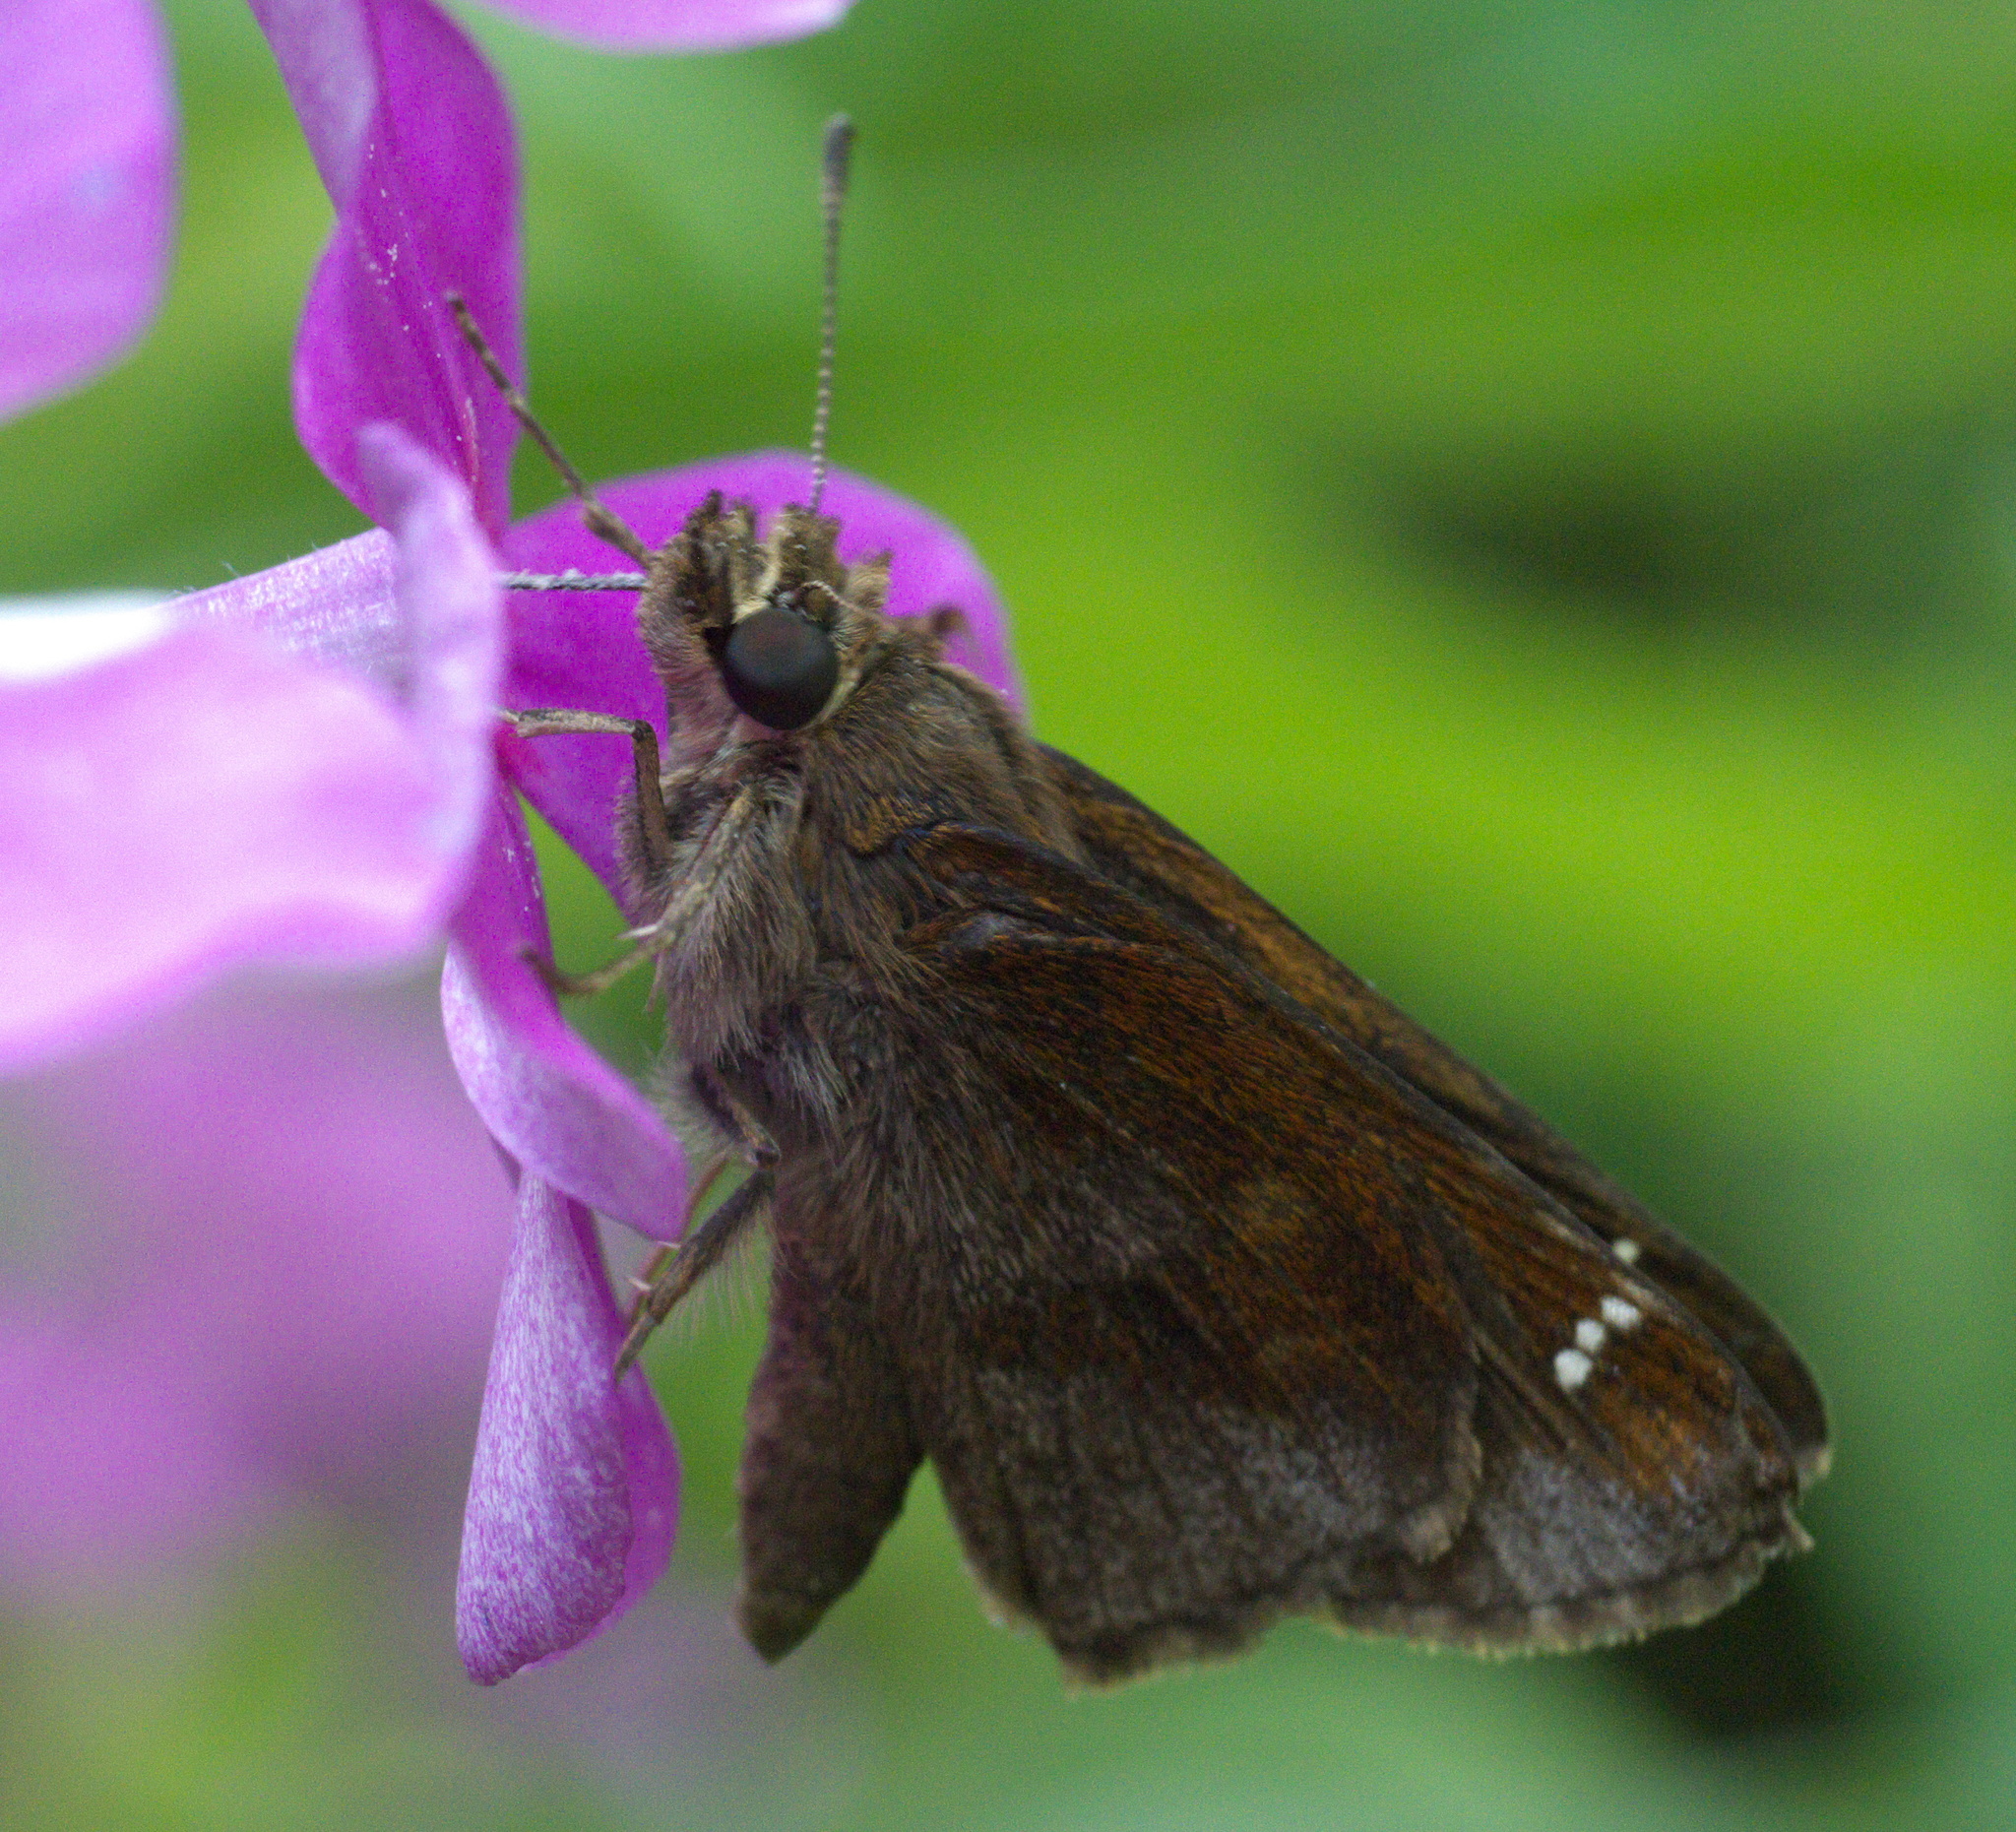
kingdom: Animalia
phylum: Arthropoda
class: Insecta
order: Lepidoptera
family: Hesperiidae
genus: Lerema
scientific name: Lerema accius
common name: Clouded skipper
